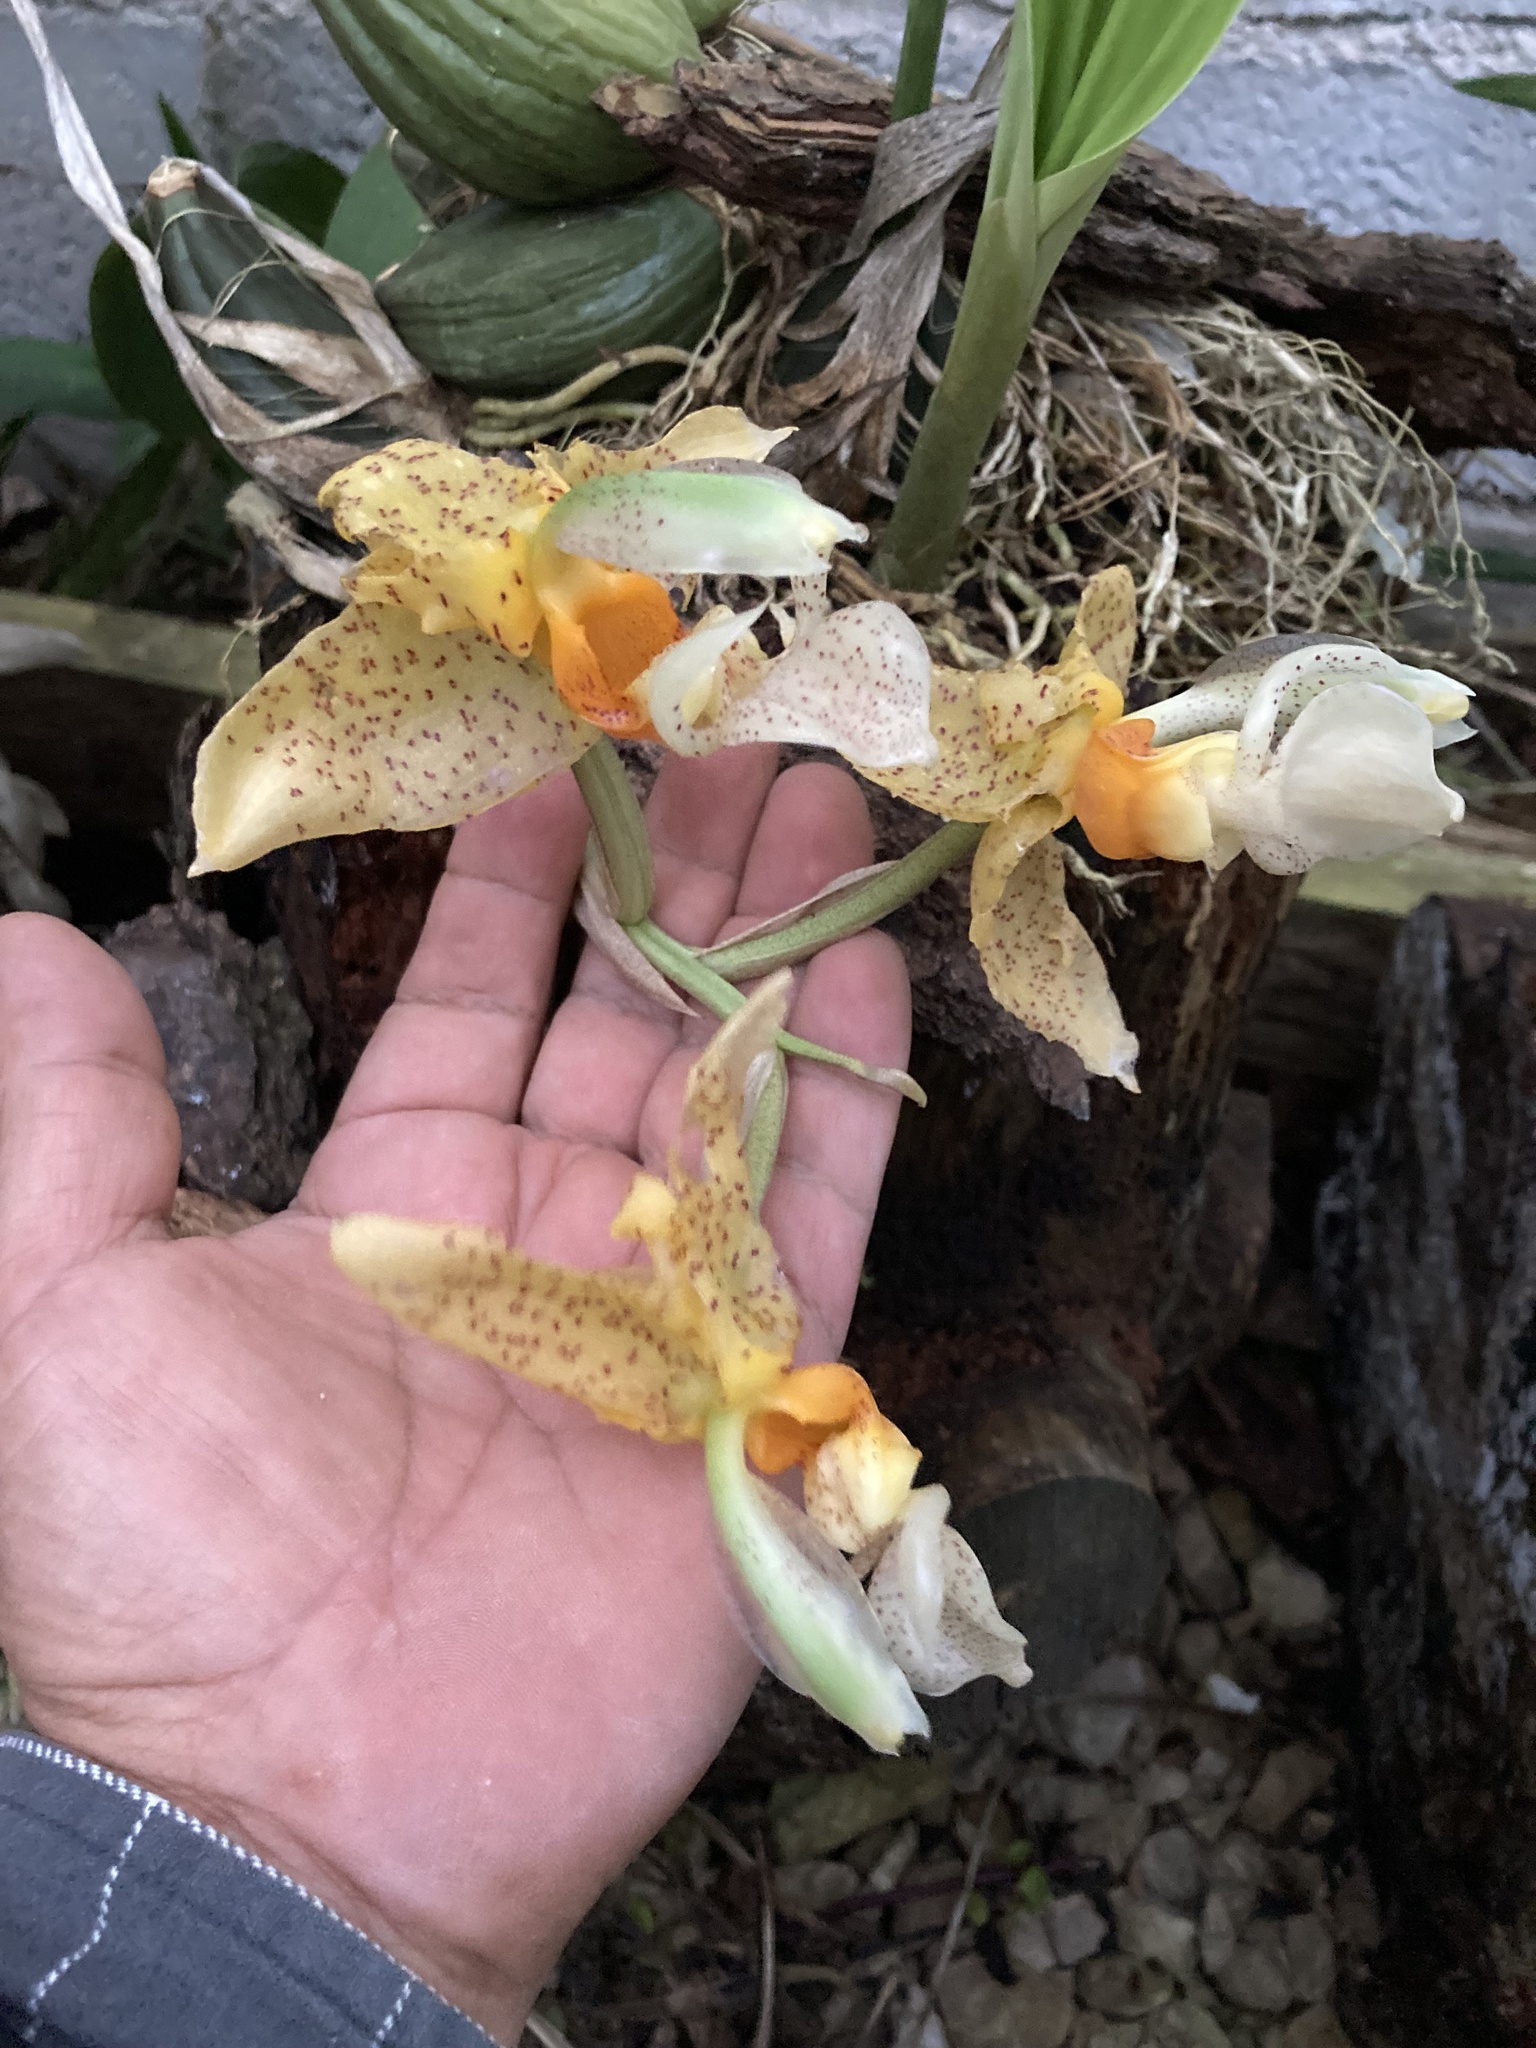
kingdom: Plantae
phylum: Tracheophyta
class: Liliopsida
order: Asparagales
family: Orchidaceae
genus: Stanhopea
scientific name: Stanhopea graveolens
